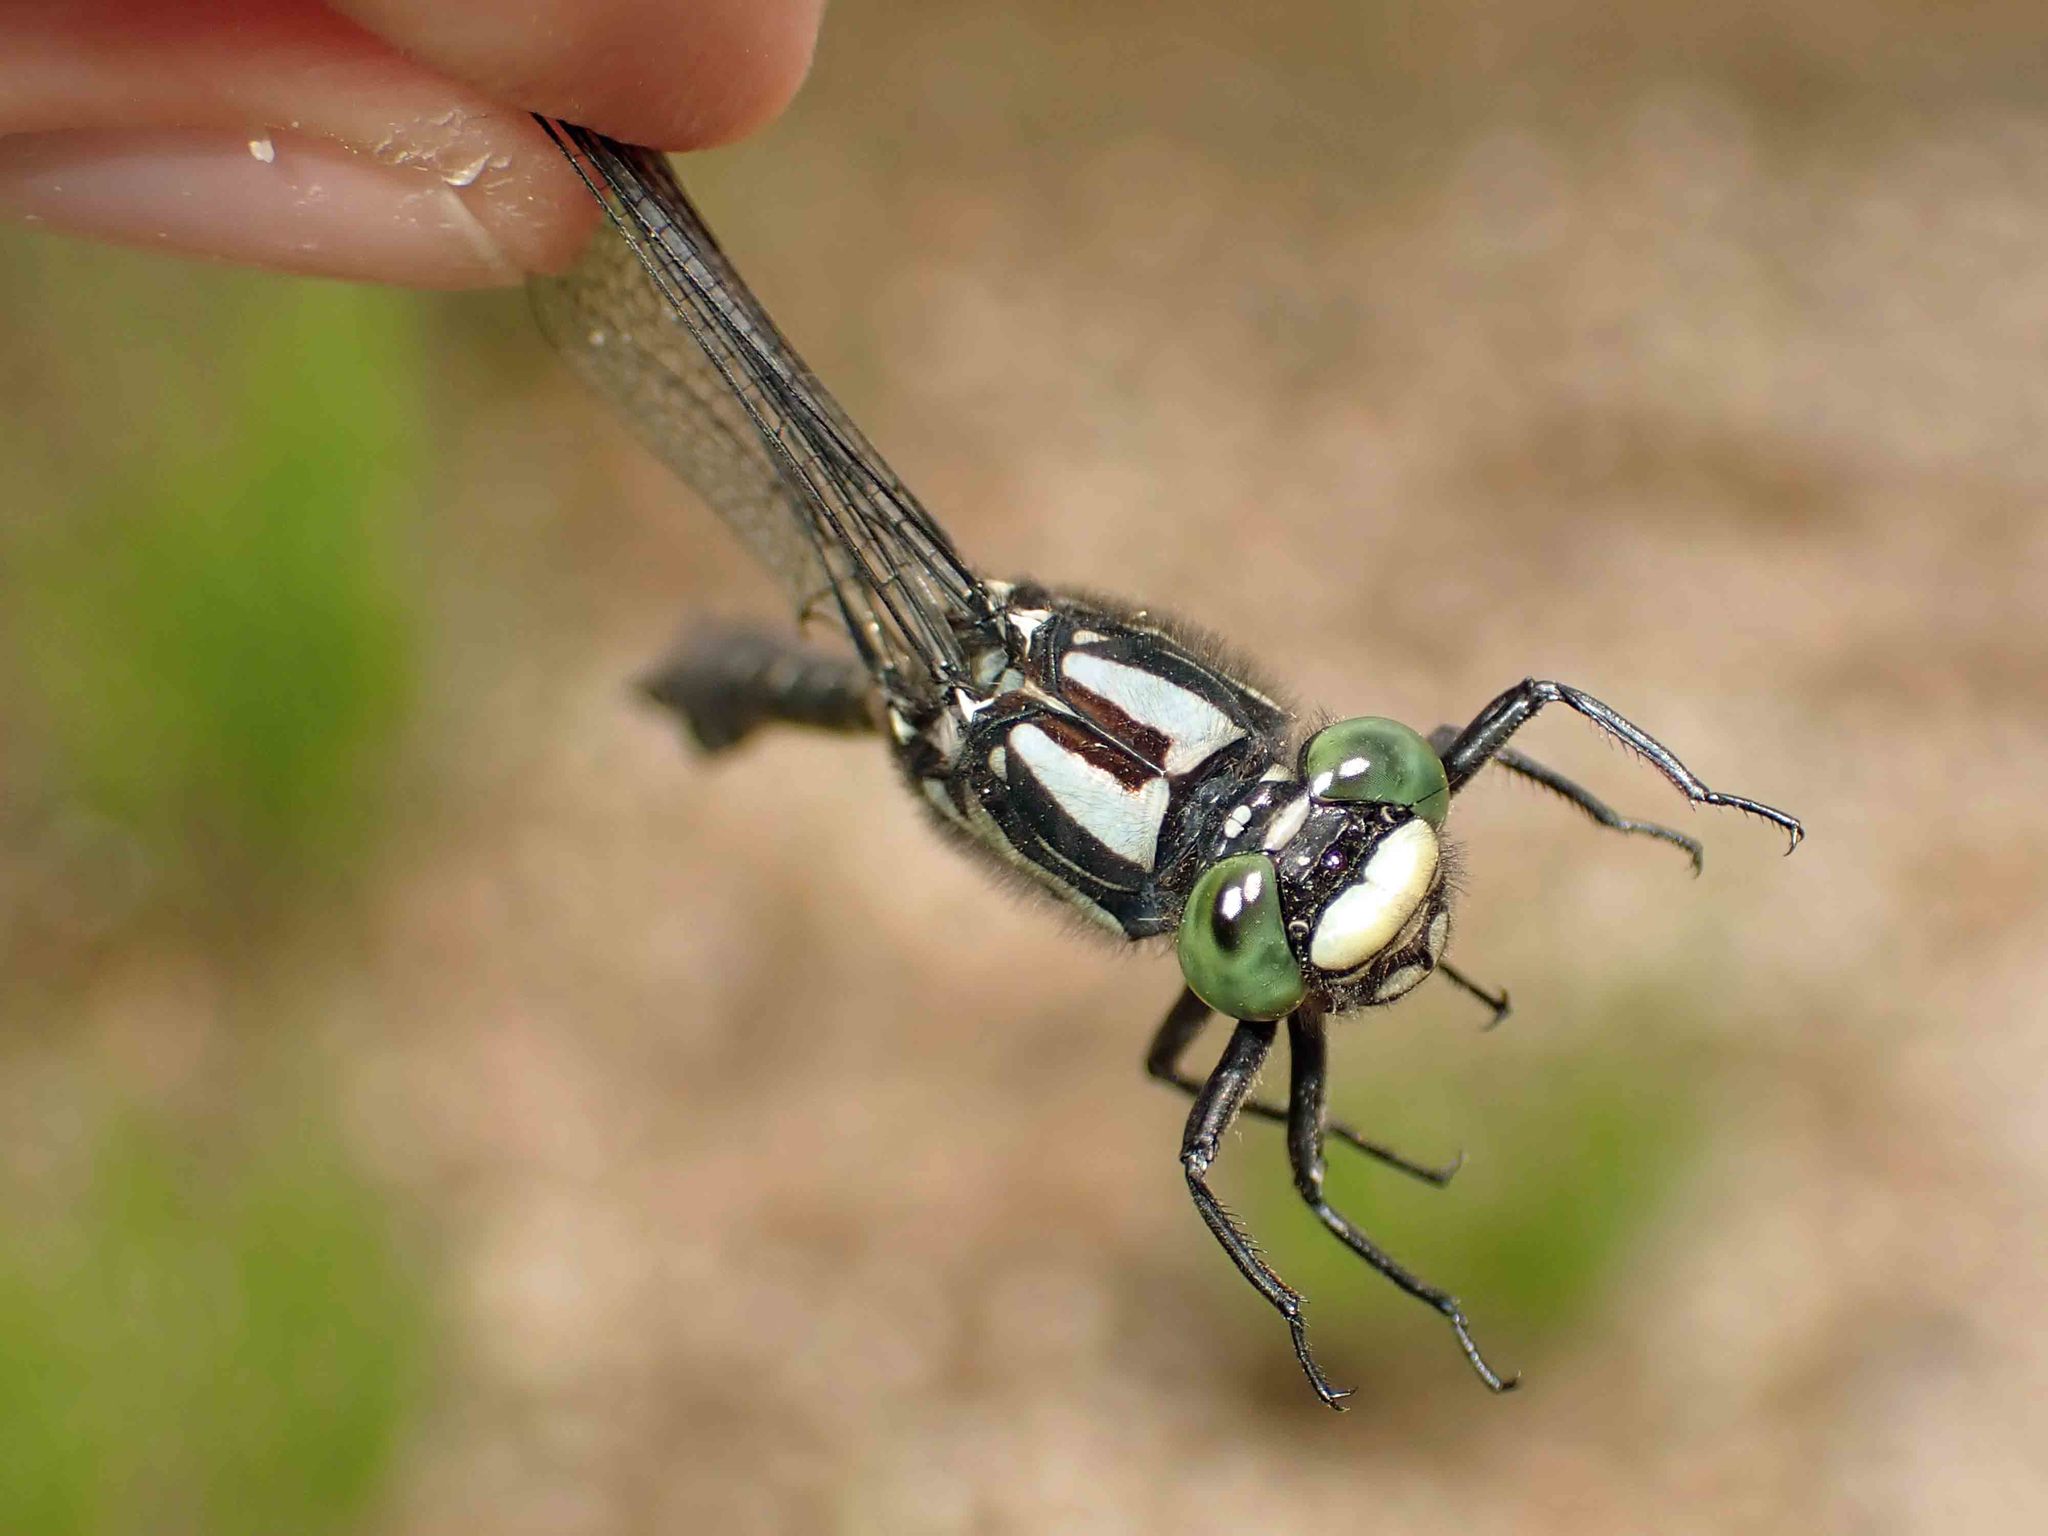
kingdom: Animalia
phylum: Arthropoda
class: Insecta
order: Odonata
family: Gomphidae
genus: Hylogomphus
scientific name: Hylogomphus adelphus
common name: Mustached clubtail
